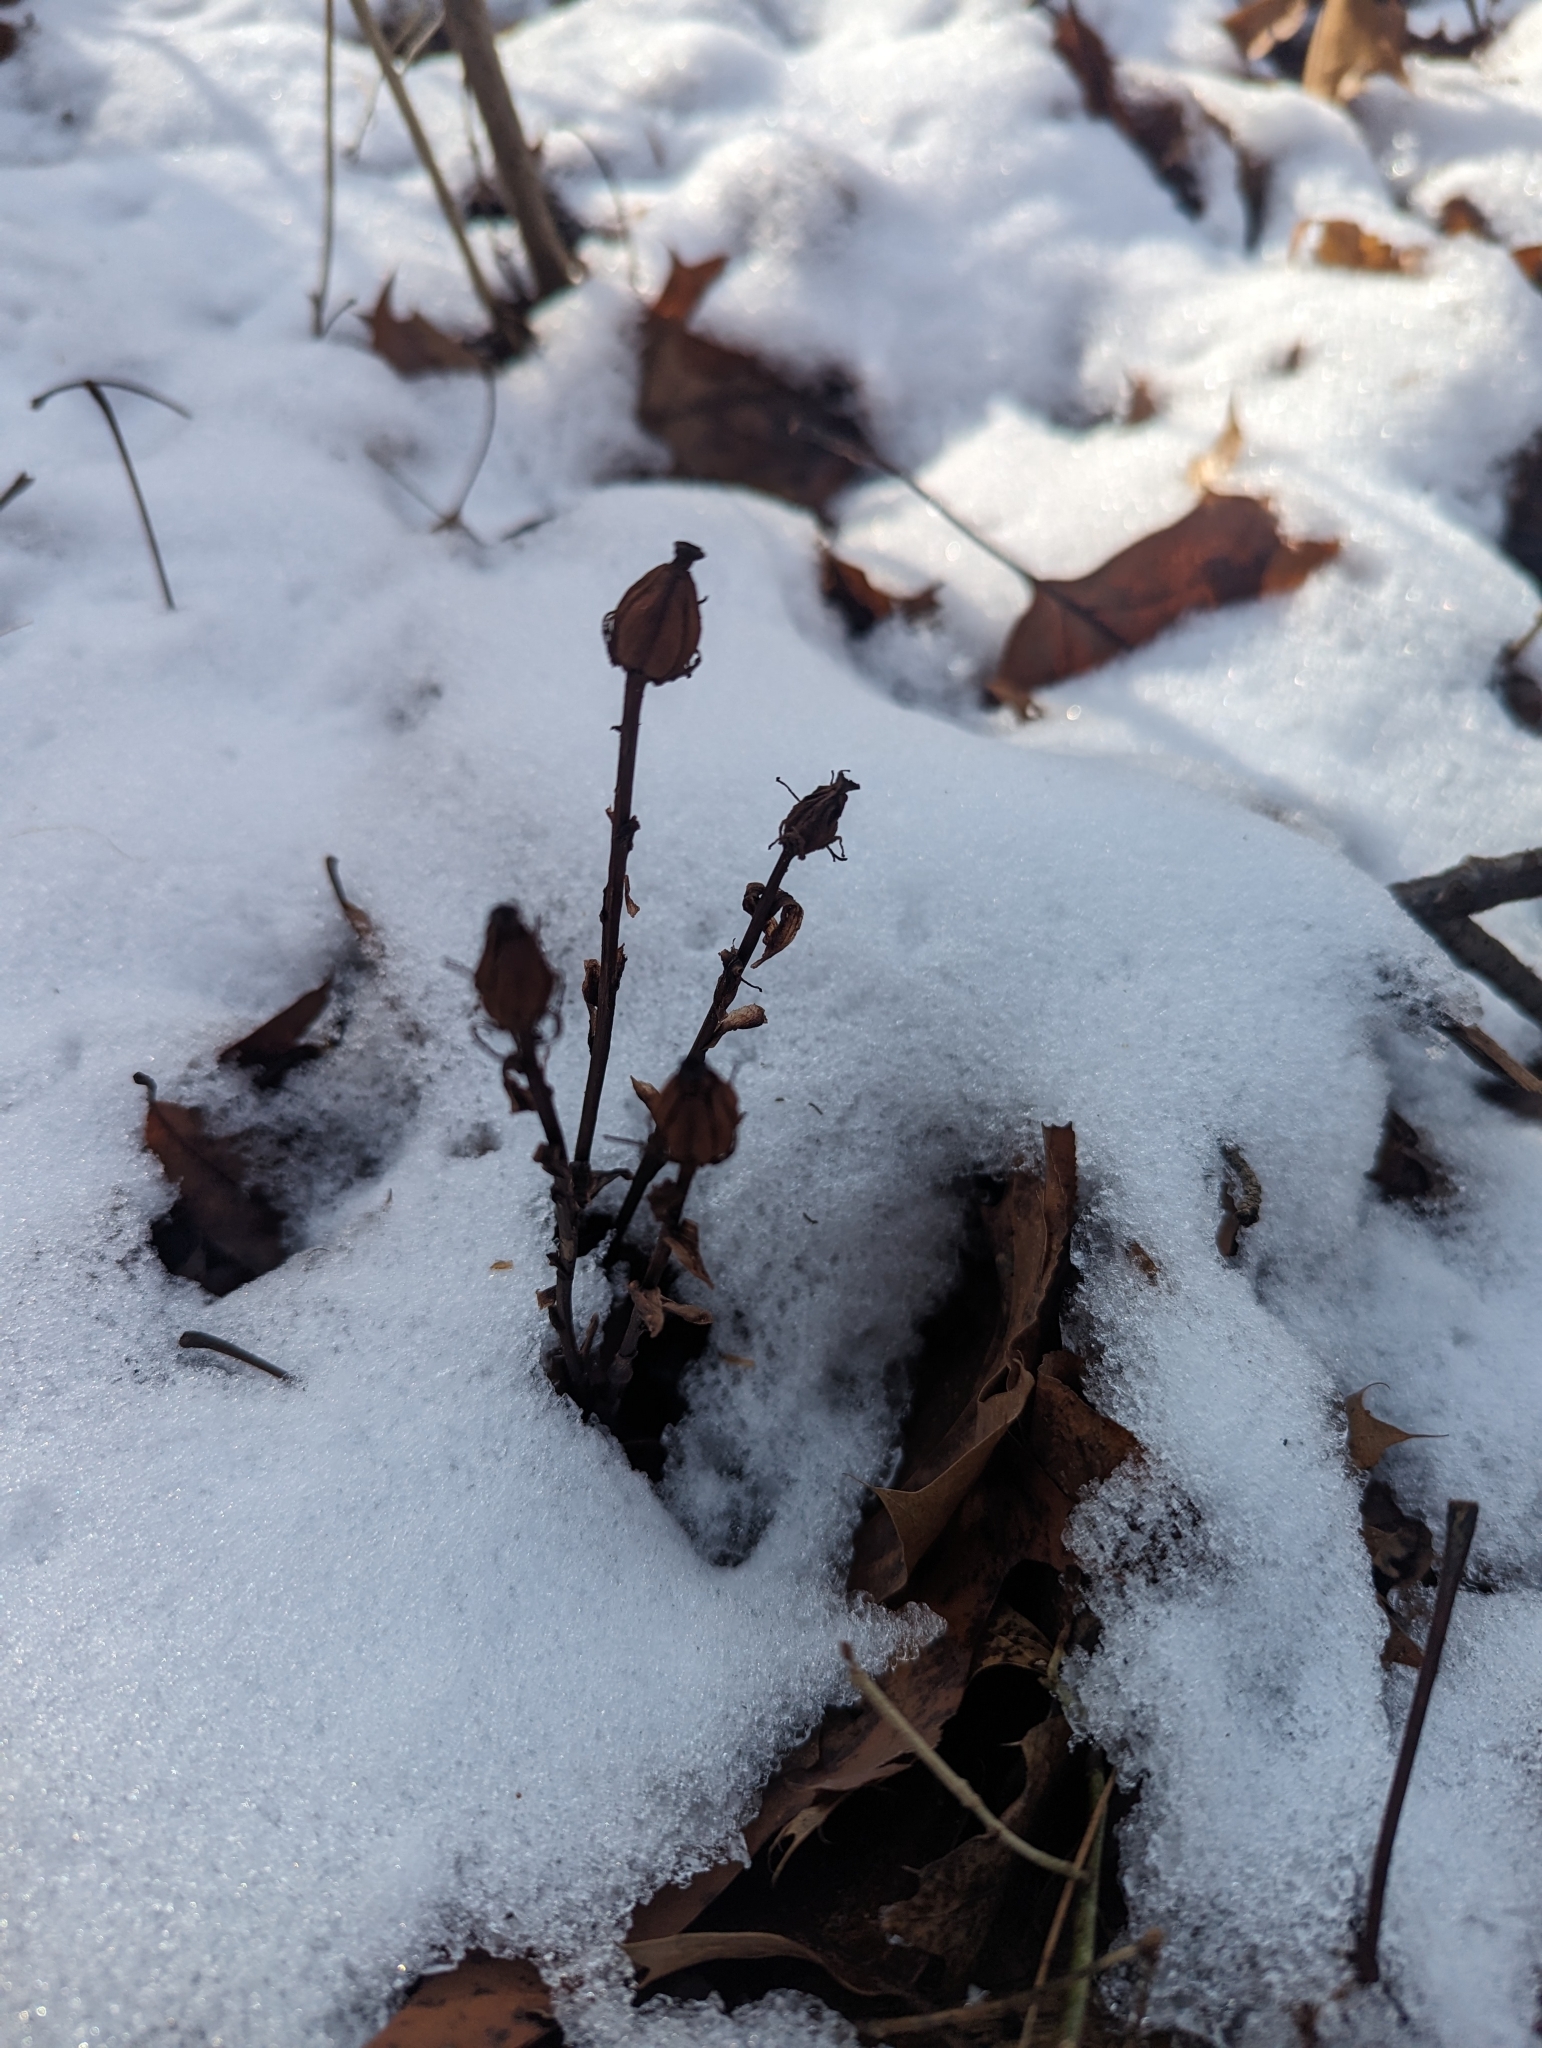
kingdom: Plantae
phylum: Tracheophyta
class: Magnoliopsida
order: Ericales
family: Ericaceae
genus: Monotropa
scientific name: Monotropa uniflora
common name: Convulsion root
